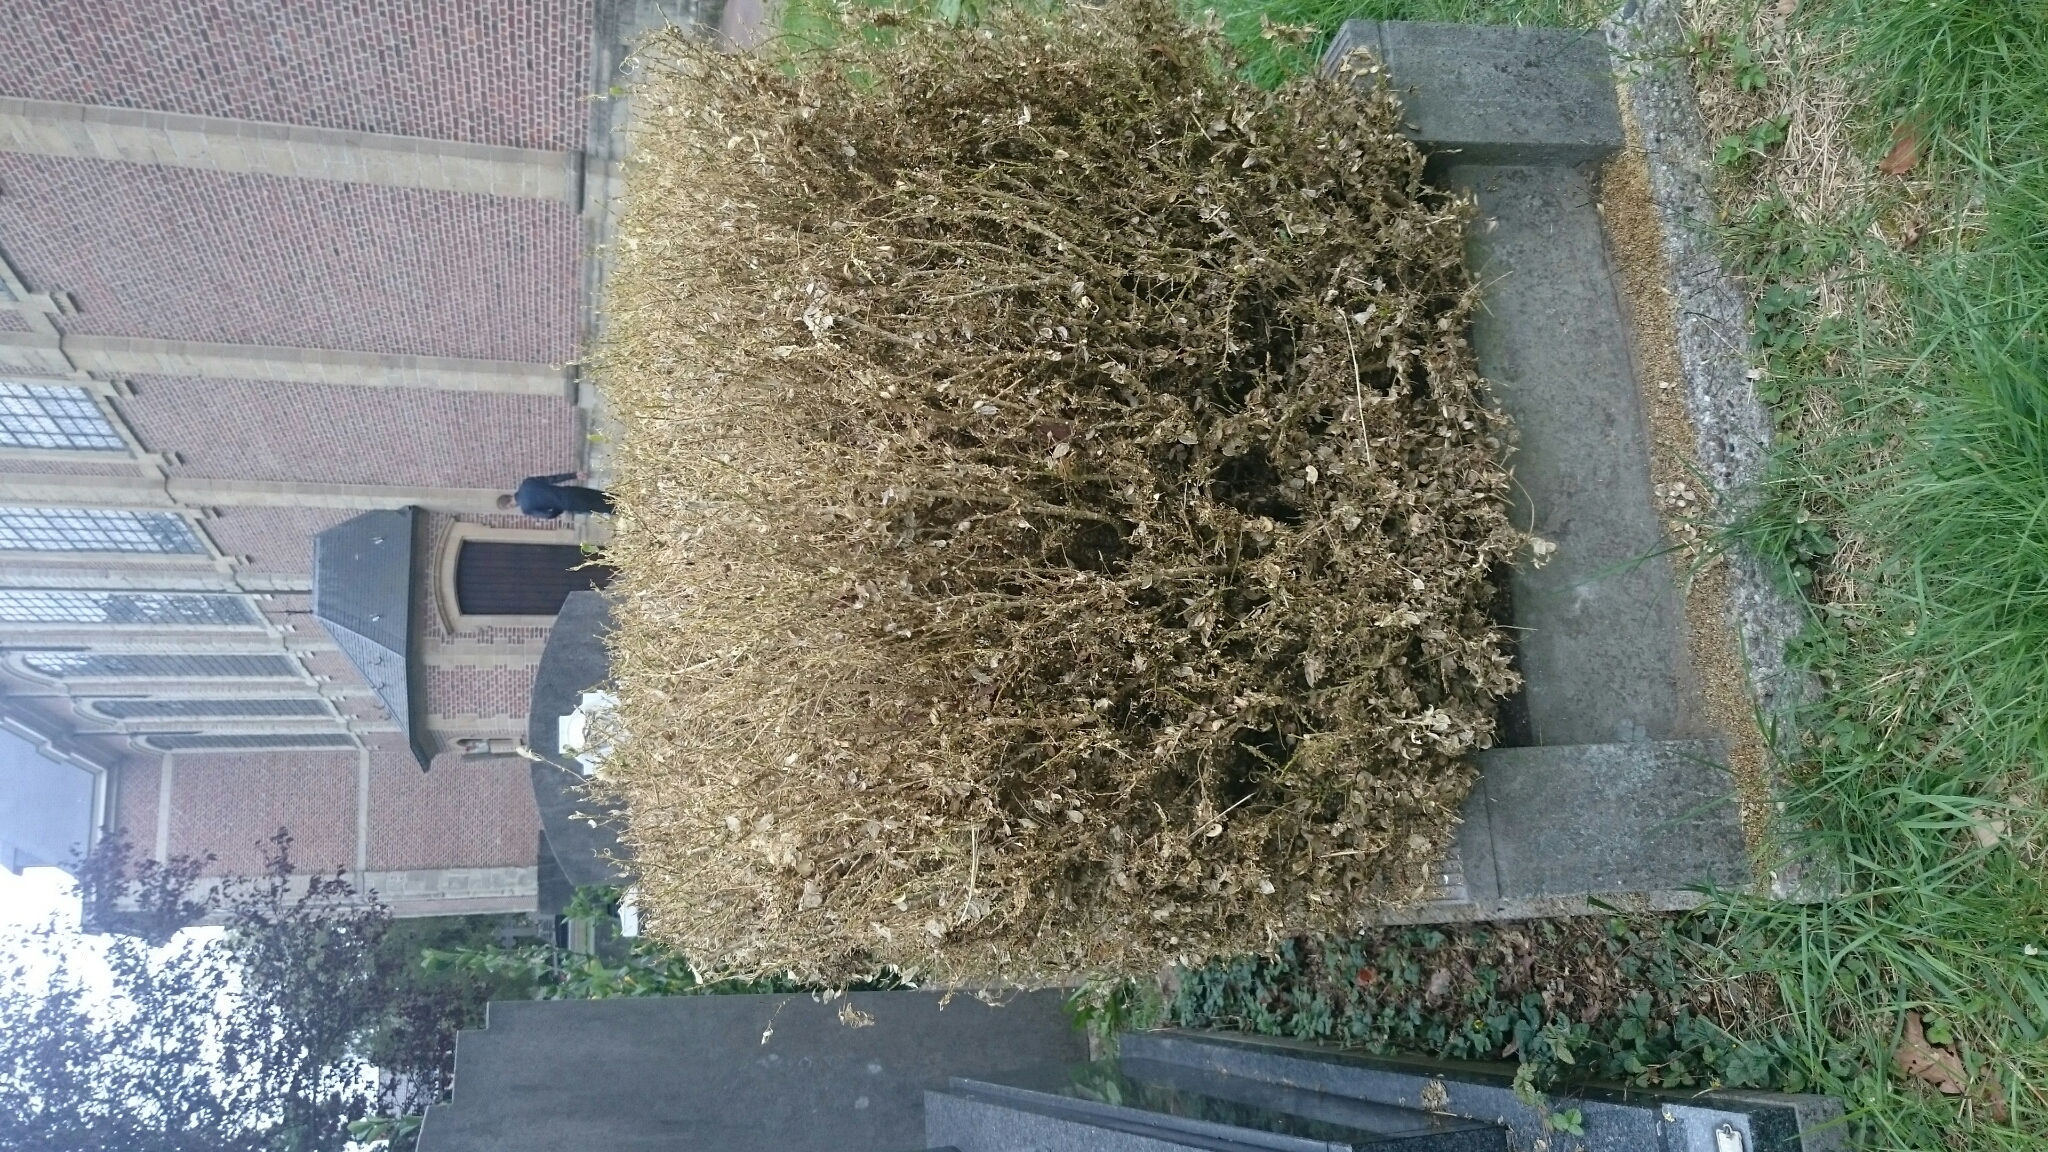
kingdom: Animalia
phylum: Arthropoda
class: Insecta
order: Lepidoptera
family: Crambidae
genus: Cydalima
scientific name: Cydalima perspectalis
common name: Box tree moth
